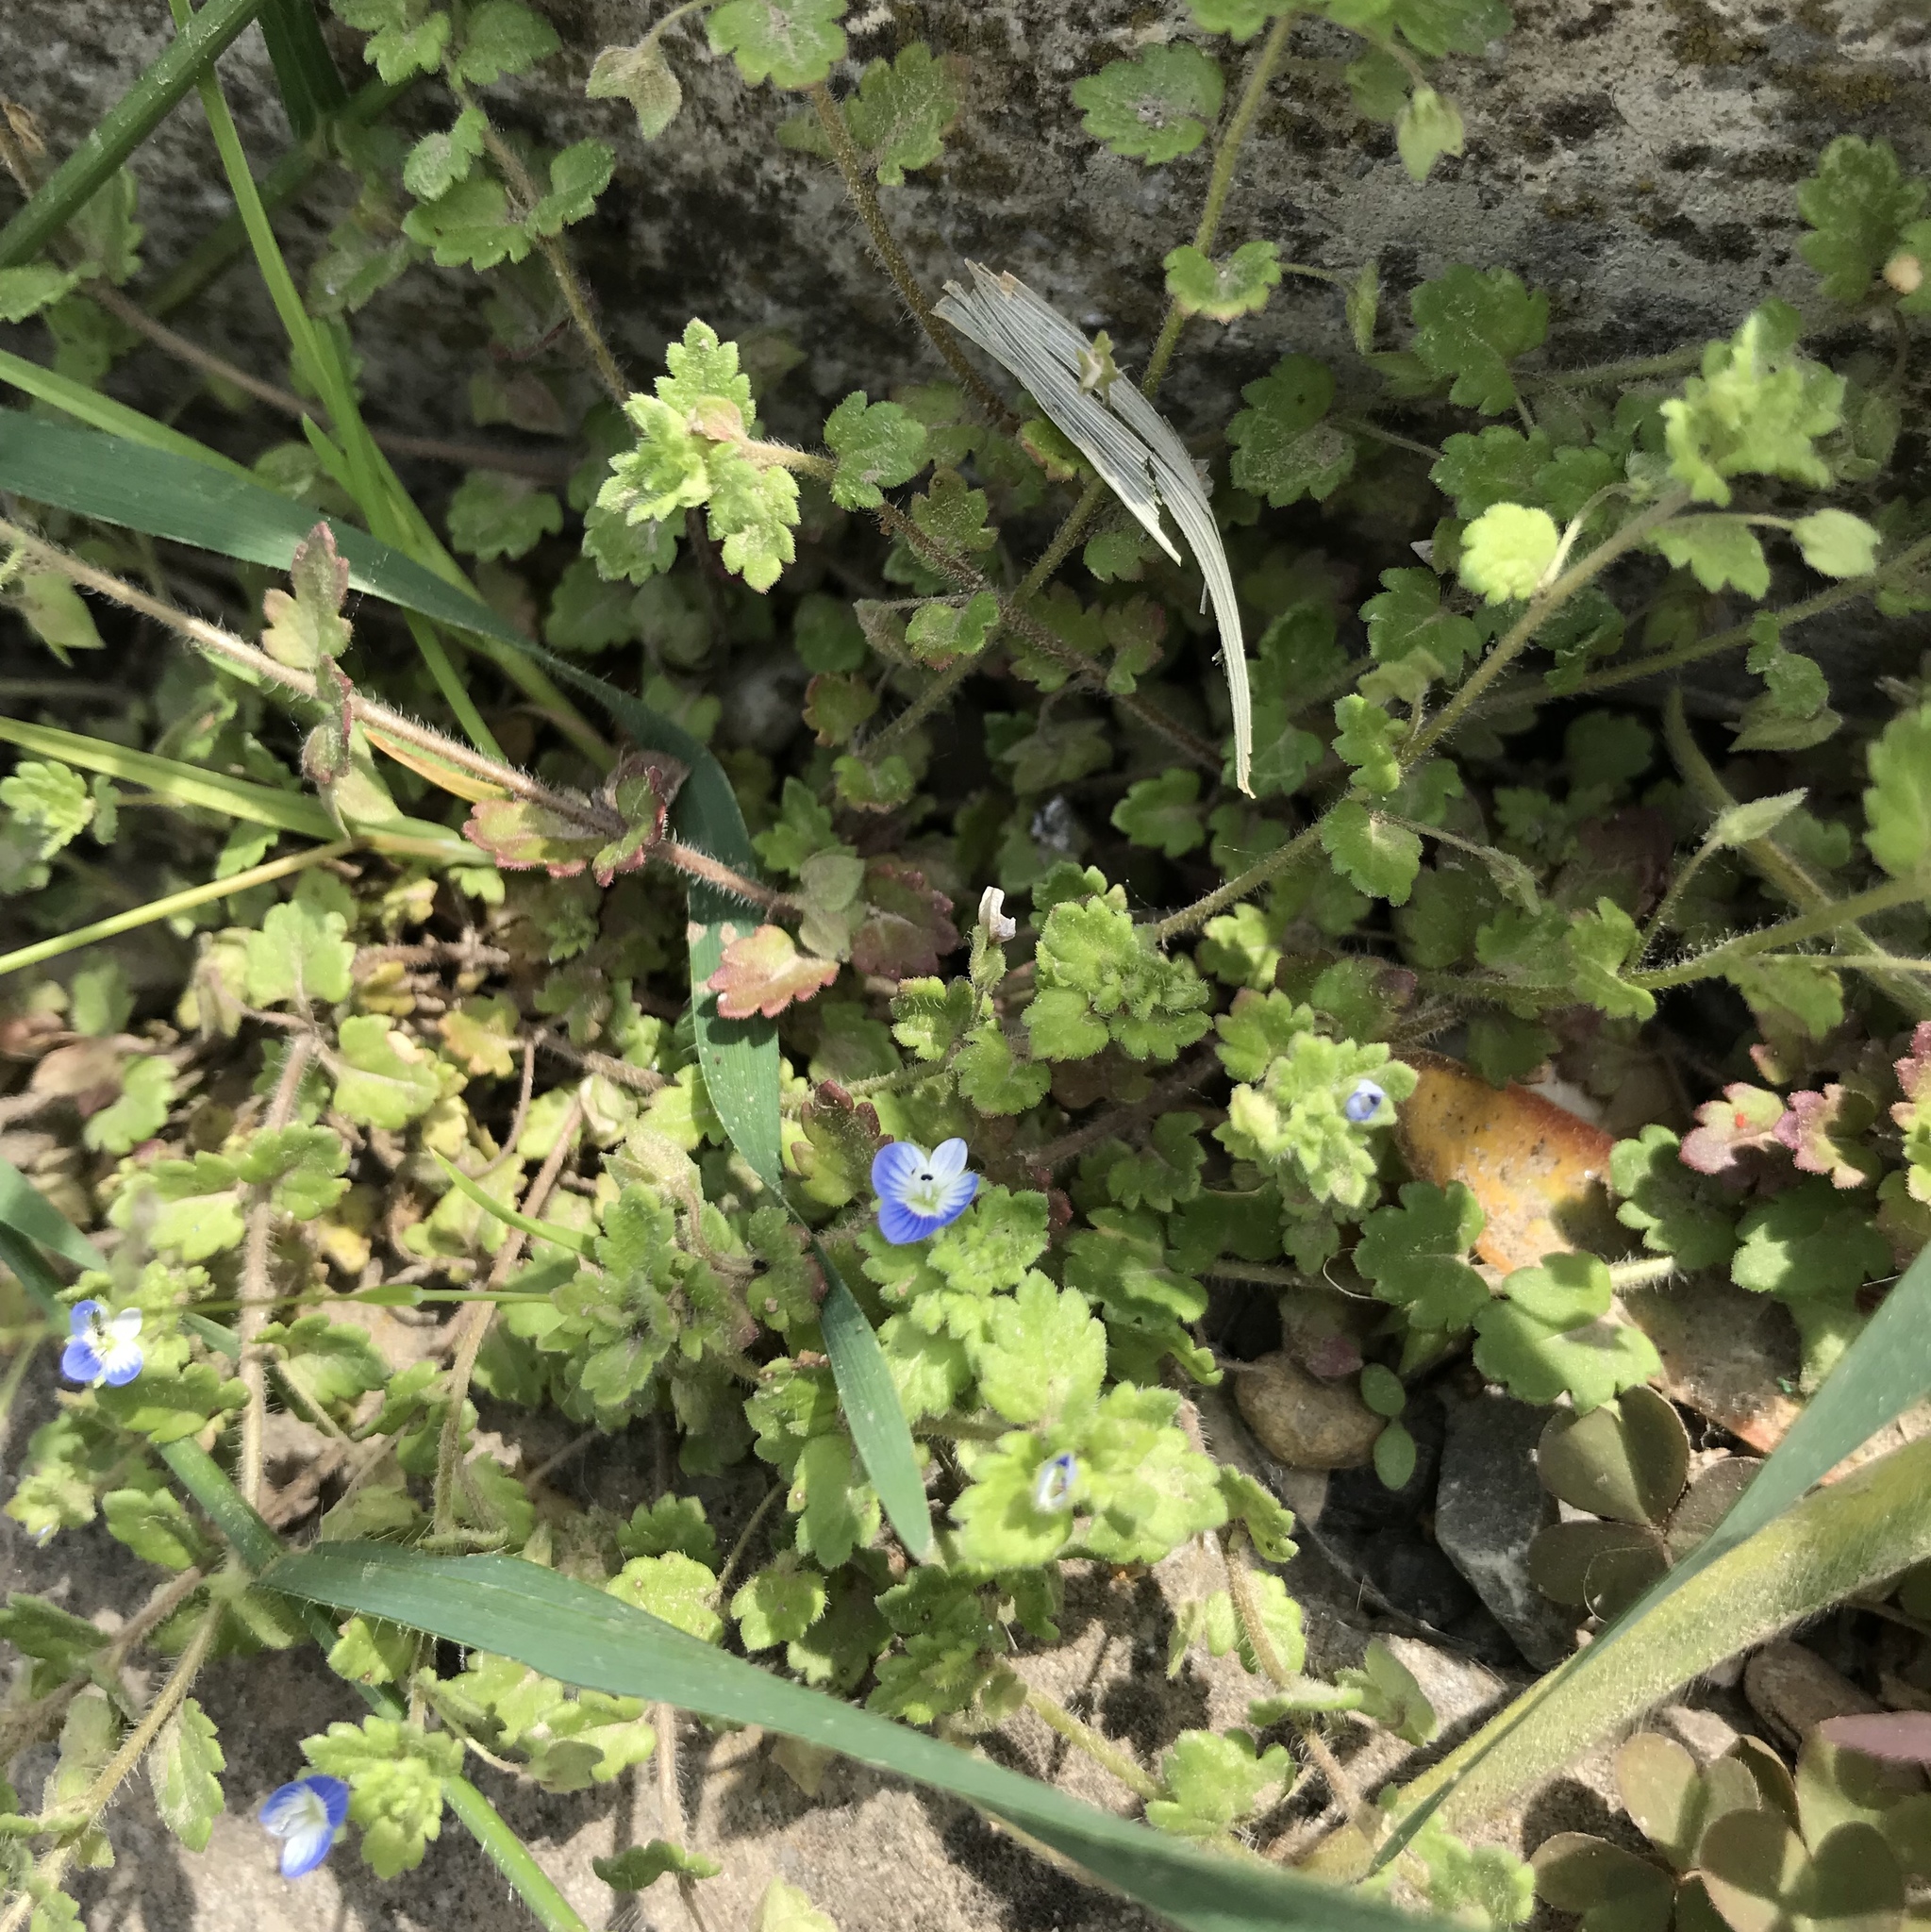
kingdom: Plantae
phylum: Tracheophyta
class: Magnoliopsida
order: Lamiales
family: Plantaginaceae
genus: Veronica
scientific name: Veronica polita
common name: Grey field-speedwell
